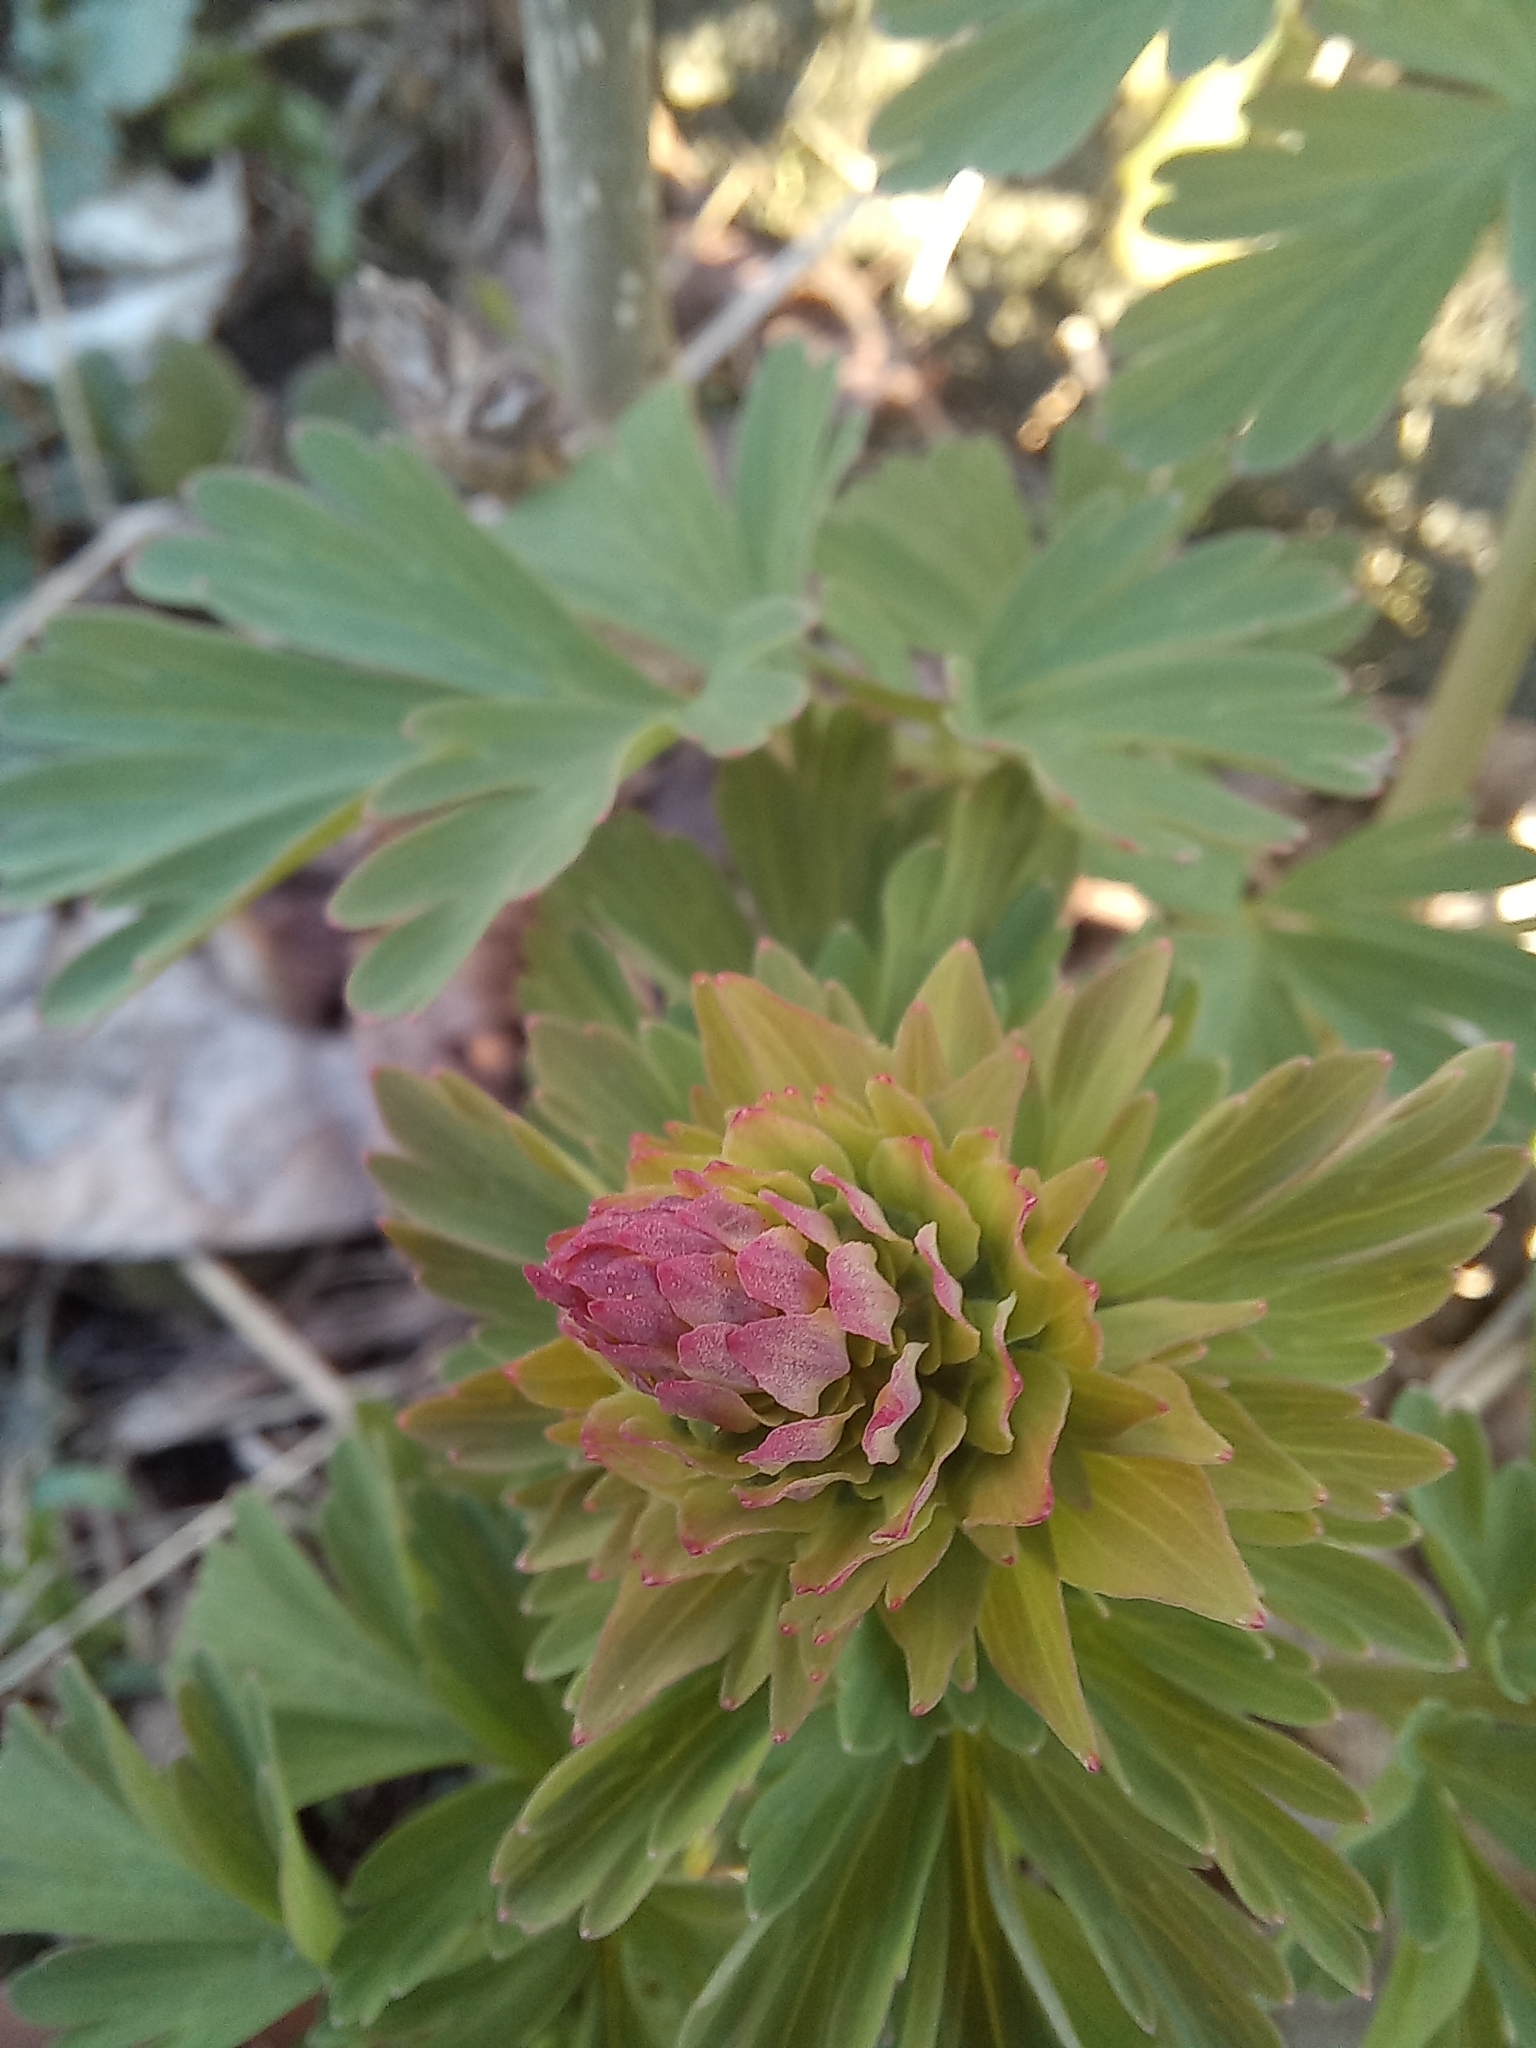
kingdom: Plantae
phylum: Tracheophyta
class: Magnoliopsida
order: Ranunculales
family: Papaveraceae
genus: Corydalis
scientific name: Corydalis nobilis
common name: Siberian corydalis
